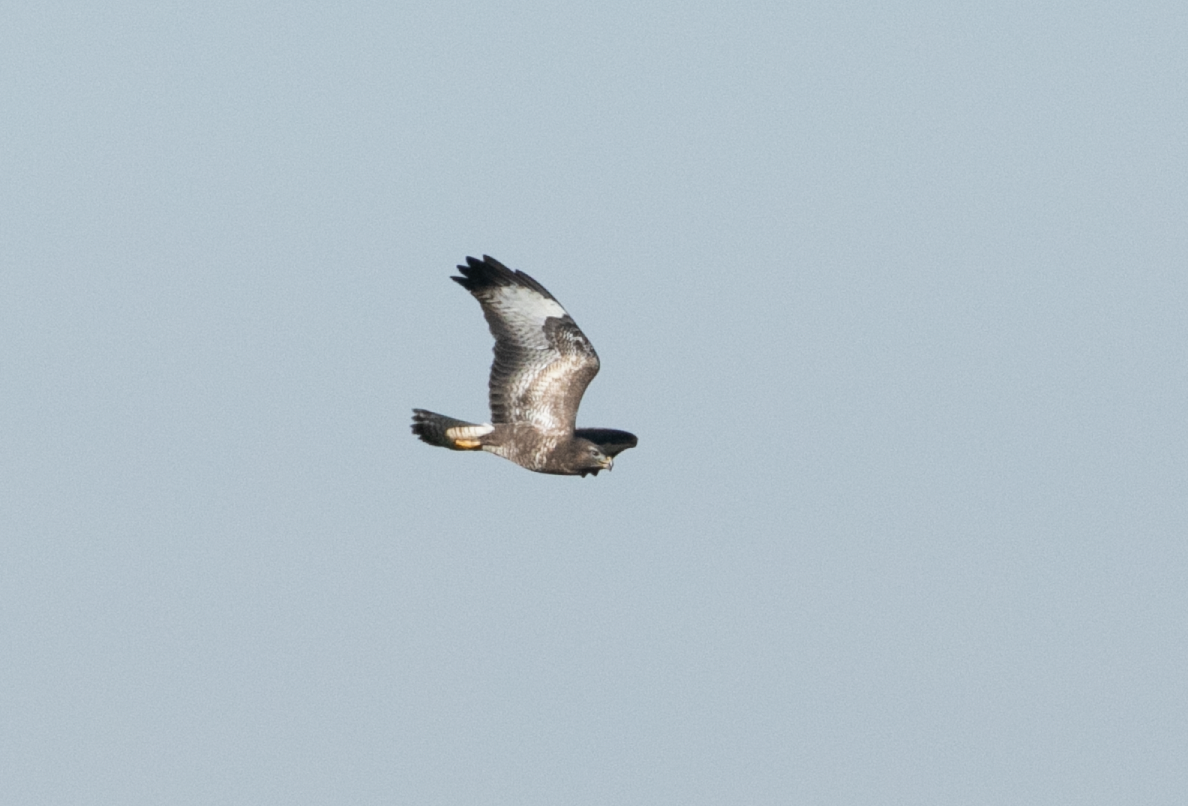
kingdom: Animalia
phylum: Chordata
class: Aves
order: Accipitriformes
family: Accipitridae
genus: Buteo
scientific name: Buteo buteo
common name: Common buzzard
